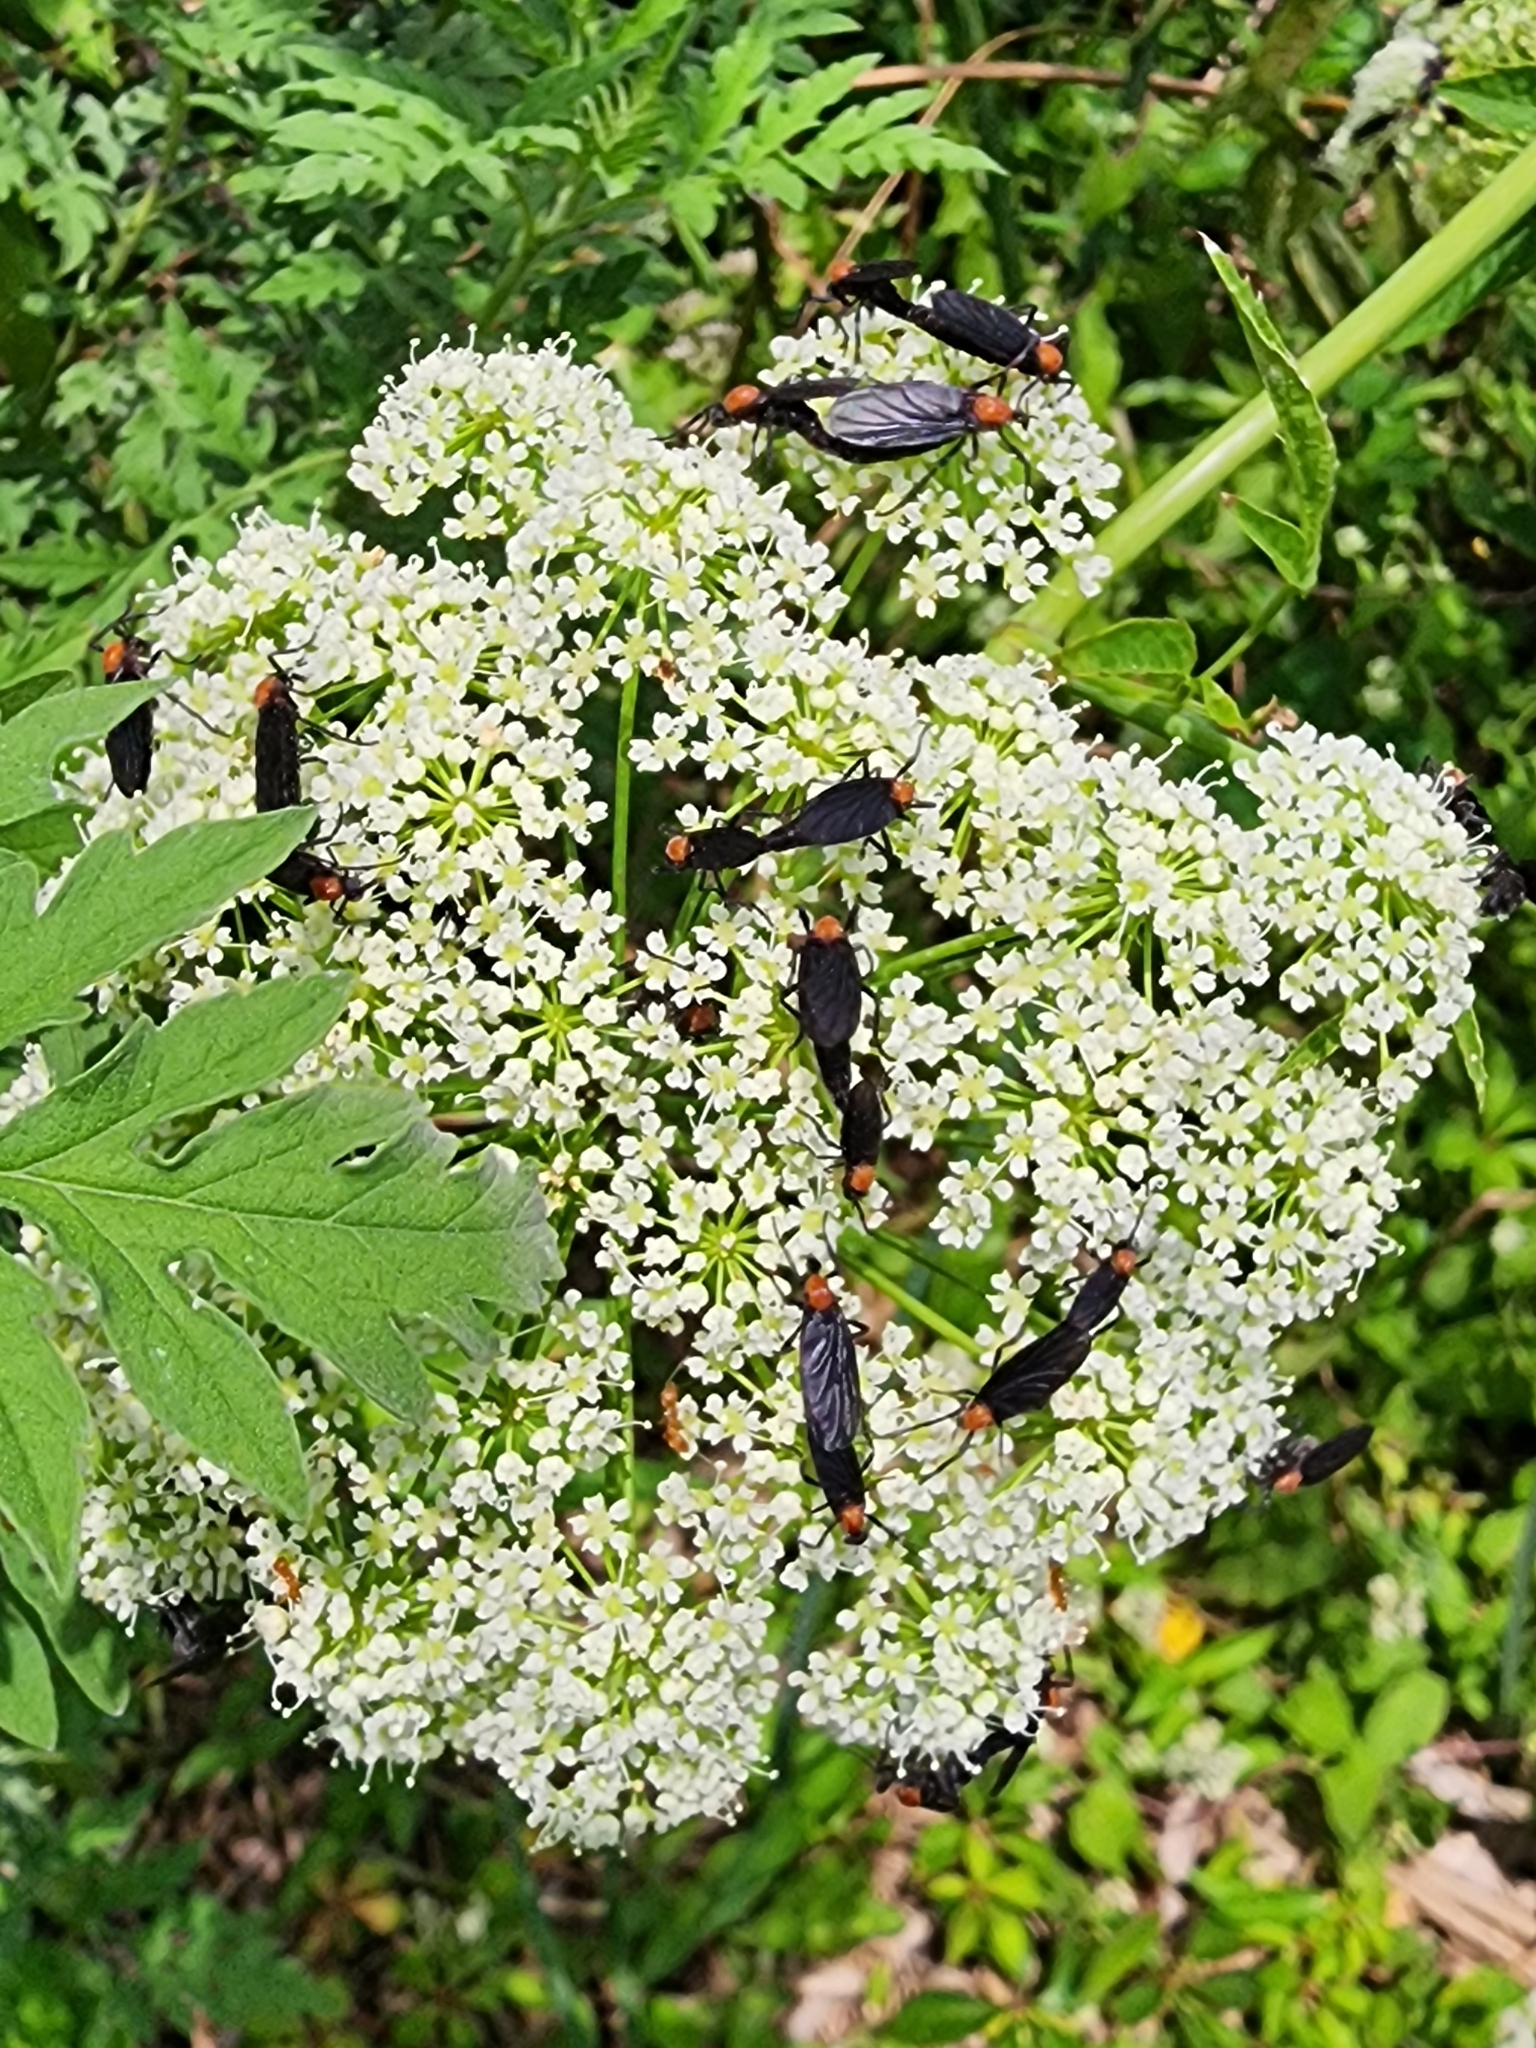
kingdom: Plantae
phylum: Tracheophyta
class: Magnoliopsida
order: Apiales
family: Apiaceae
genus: Cicuta
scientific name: Cicuta maculata
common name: Spotted cowbane
